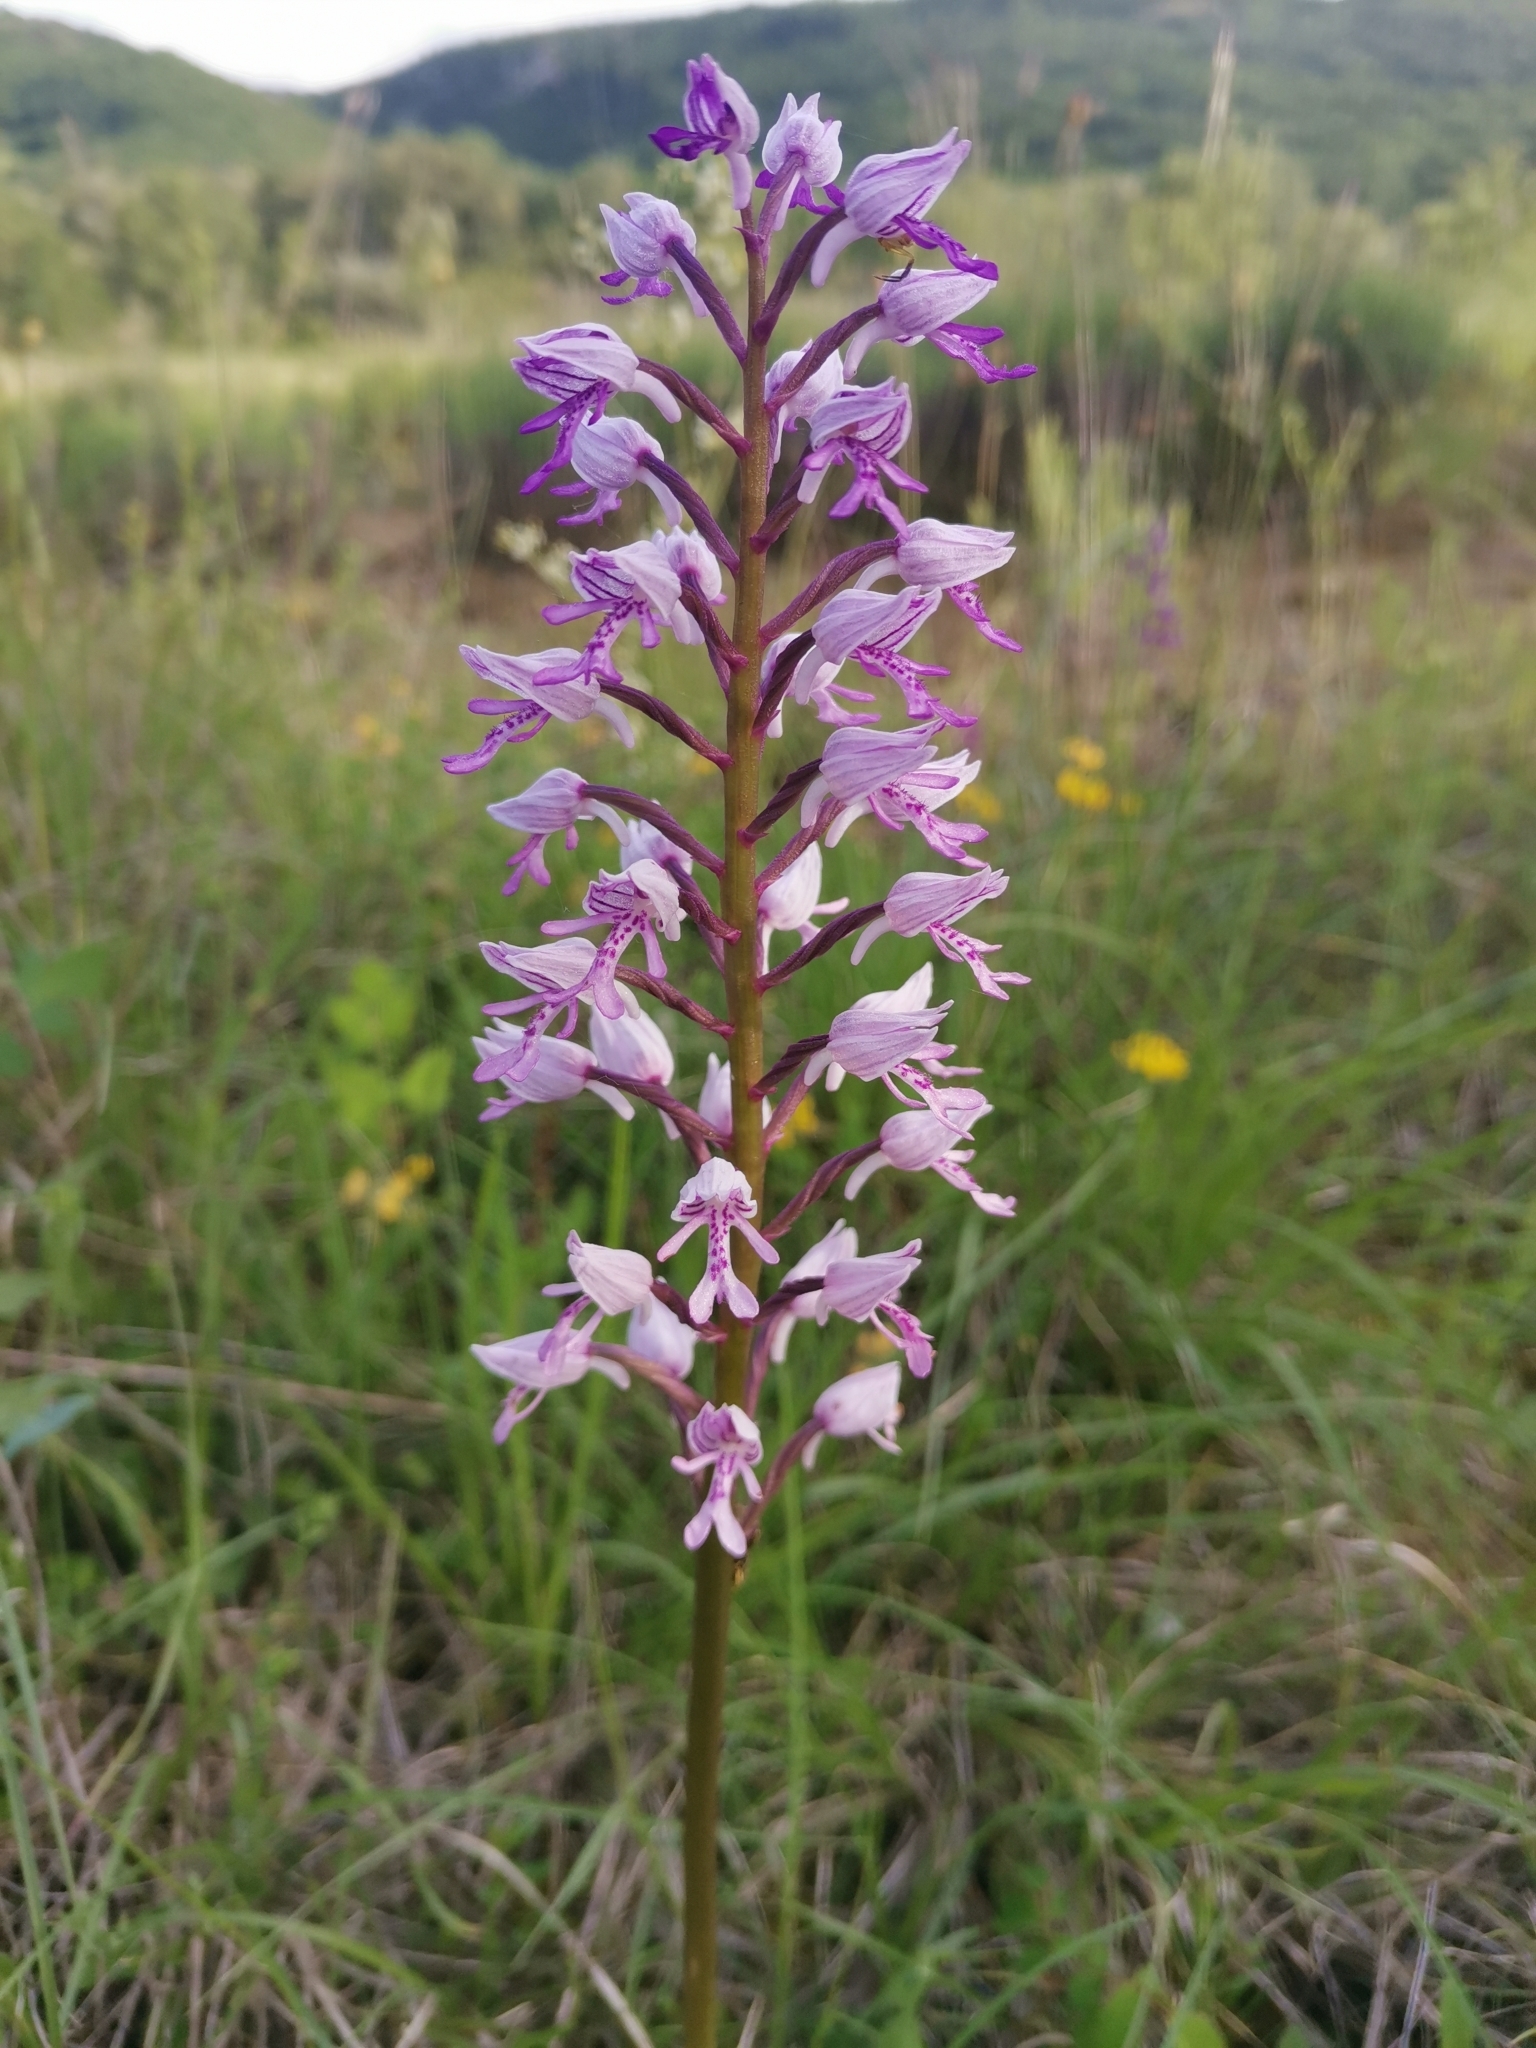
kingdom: Plantae
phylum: Tracheophyta
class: Liliopsida
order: Asparagales
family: Orchidaceae
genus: Orchis
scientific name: Orchis militaris
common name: Military orchid
